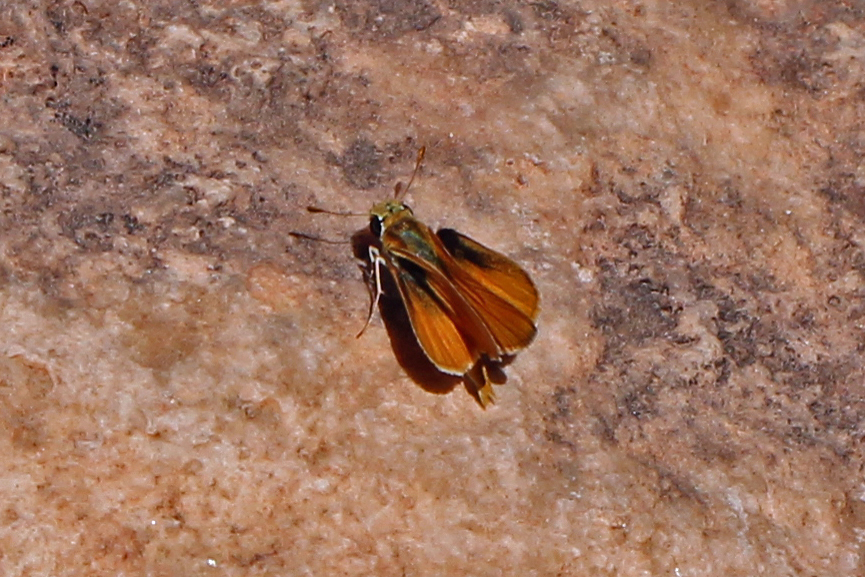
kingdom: Animalia
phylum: Arthropoda
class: Insecta
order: Lepidoptera
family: Hesperiidae
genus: Copaeodes
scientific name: Copaeodes aurantiaca
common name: Orange skipperling
